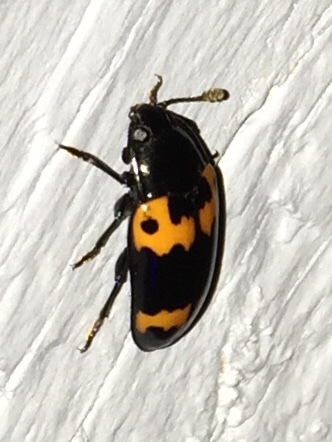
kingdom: Animalia
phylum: Arthropoda
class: Insecta
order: Coleoptera
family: Erotylidae
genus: Megalodacne
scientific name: Megalodacne fasciata
